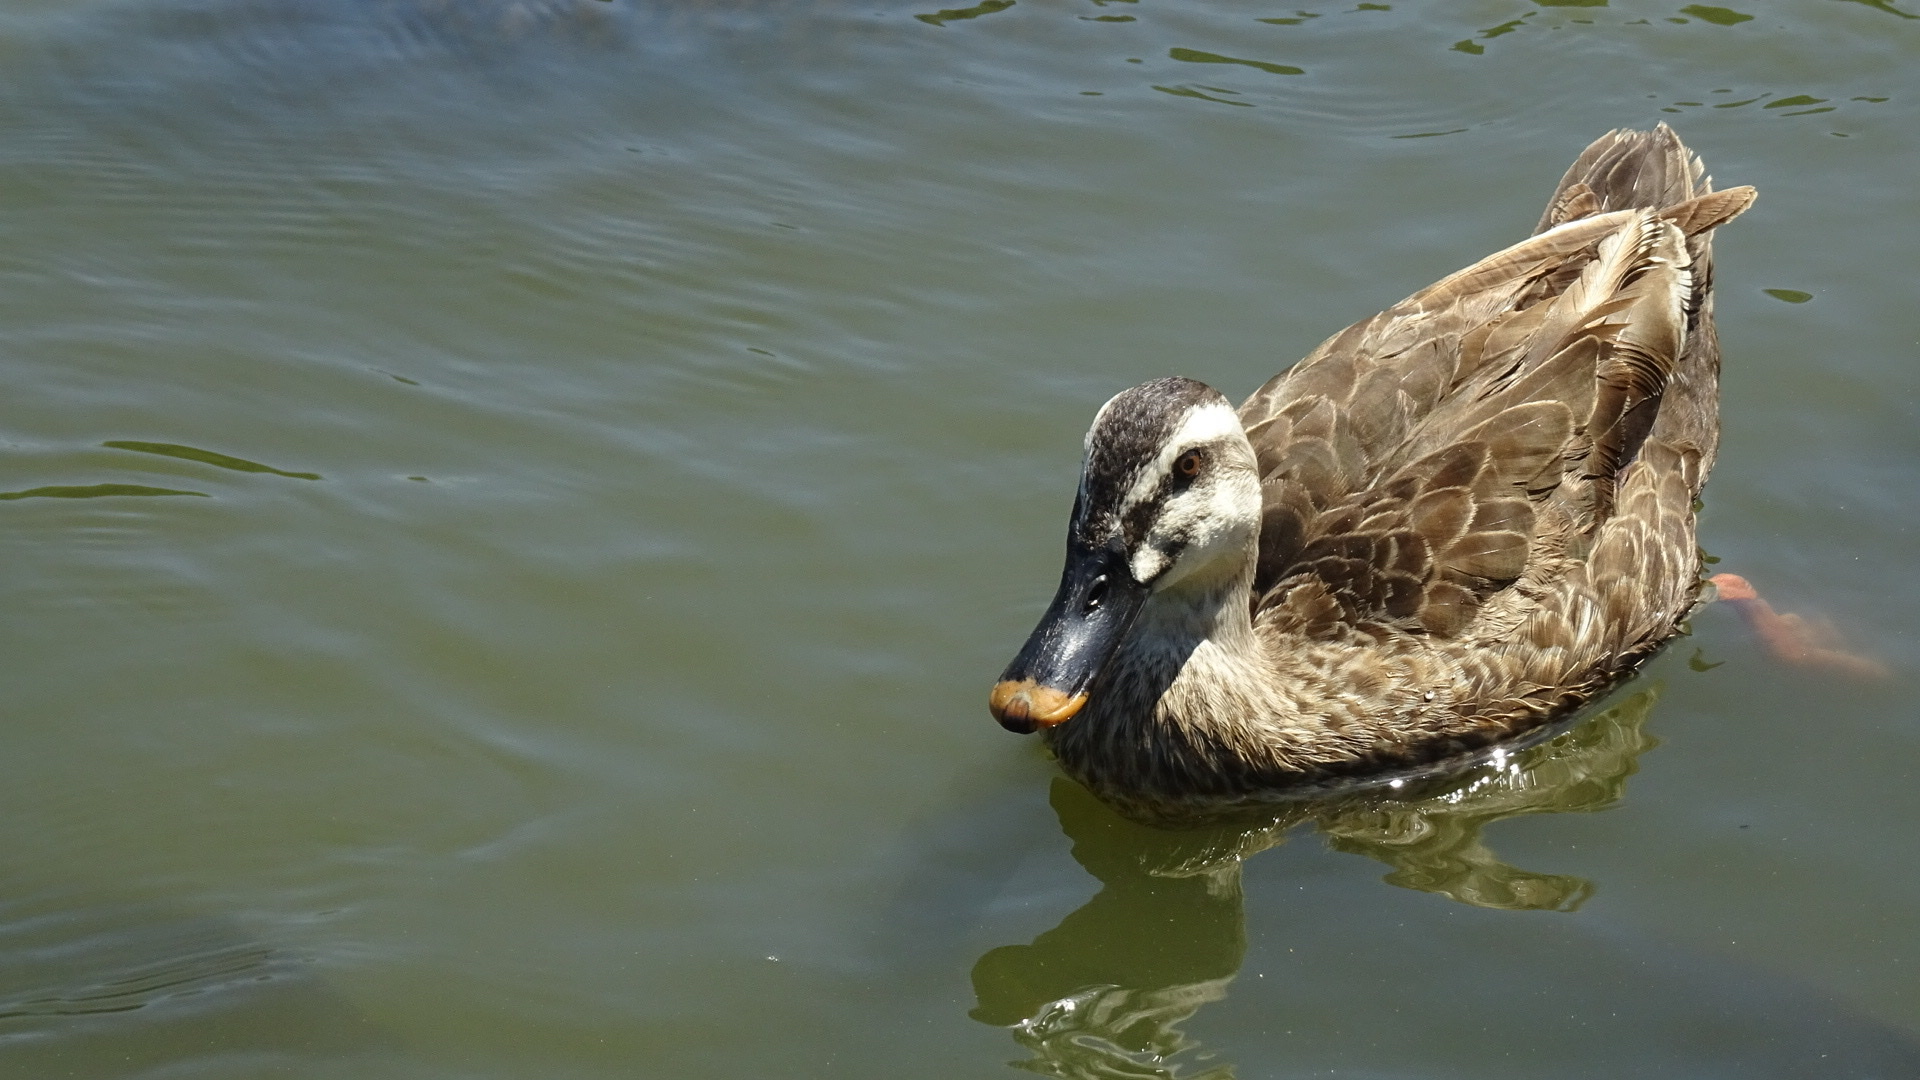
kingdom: Animalia
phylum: Chordata
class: Aves
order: Anseriformes
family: Anatidae
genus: Anas
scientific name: Anas zonorhyncha
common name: Eastern spot-billed duck
